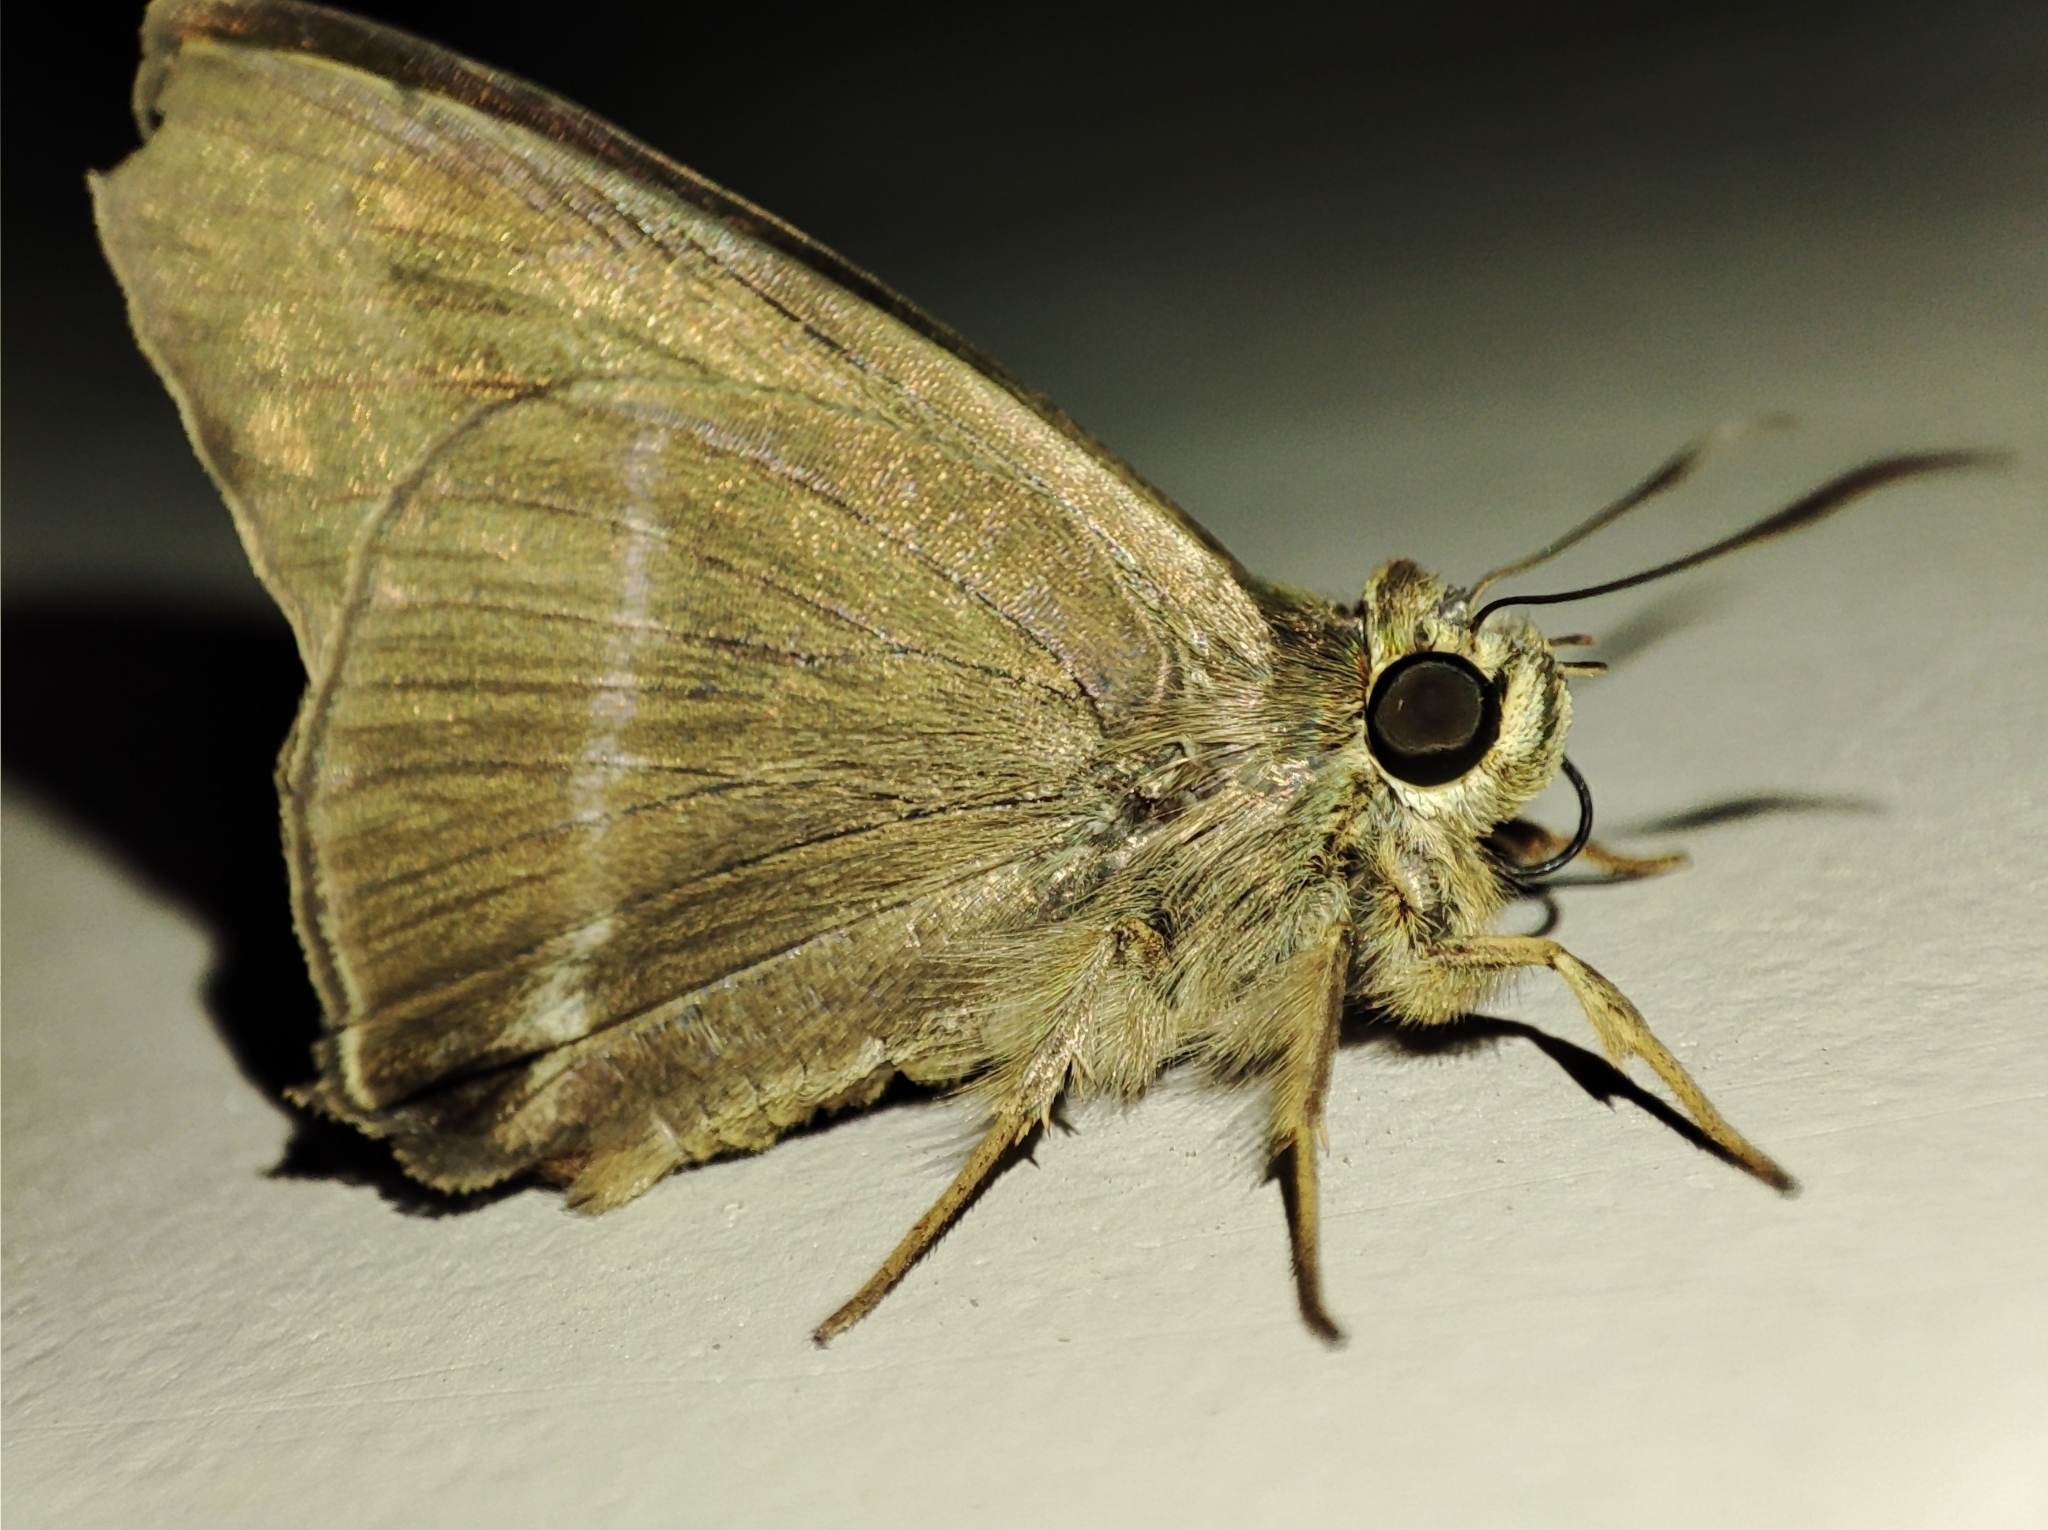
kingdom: Animalia
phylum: Arthropoda
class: Insecta
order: Lepidoptera
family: Hesperiidae
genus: Hasora
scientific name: Hasora chromus
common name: Common banded awl
